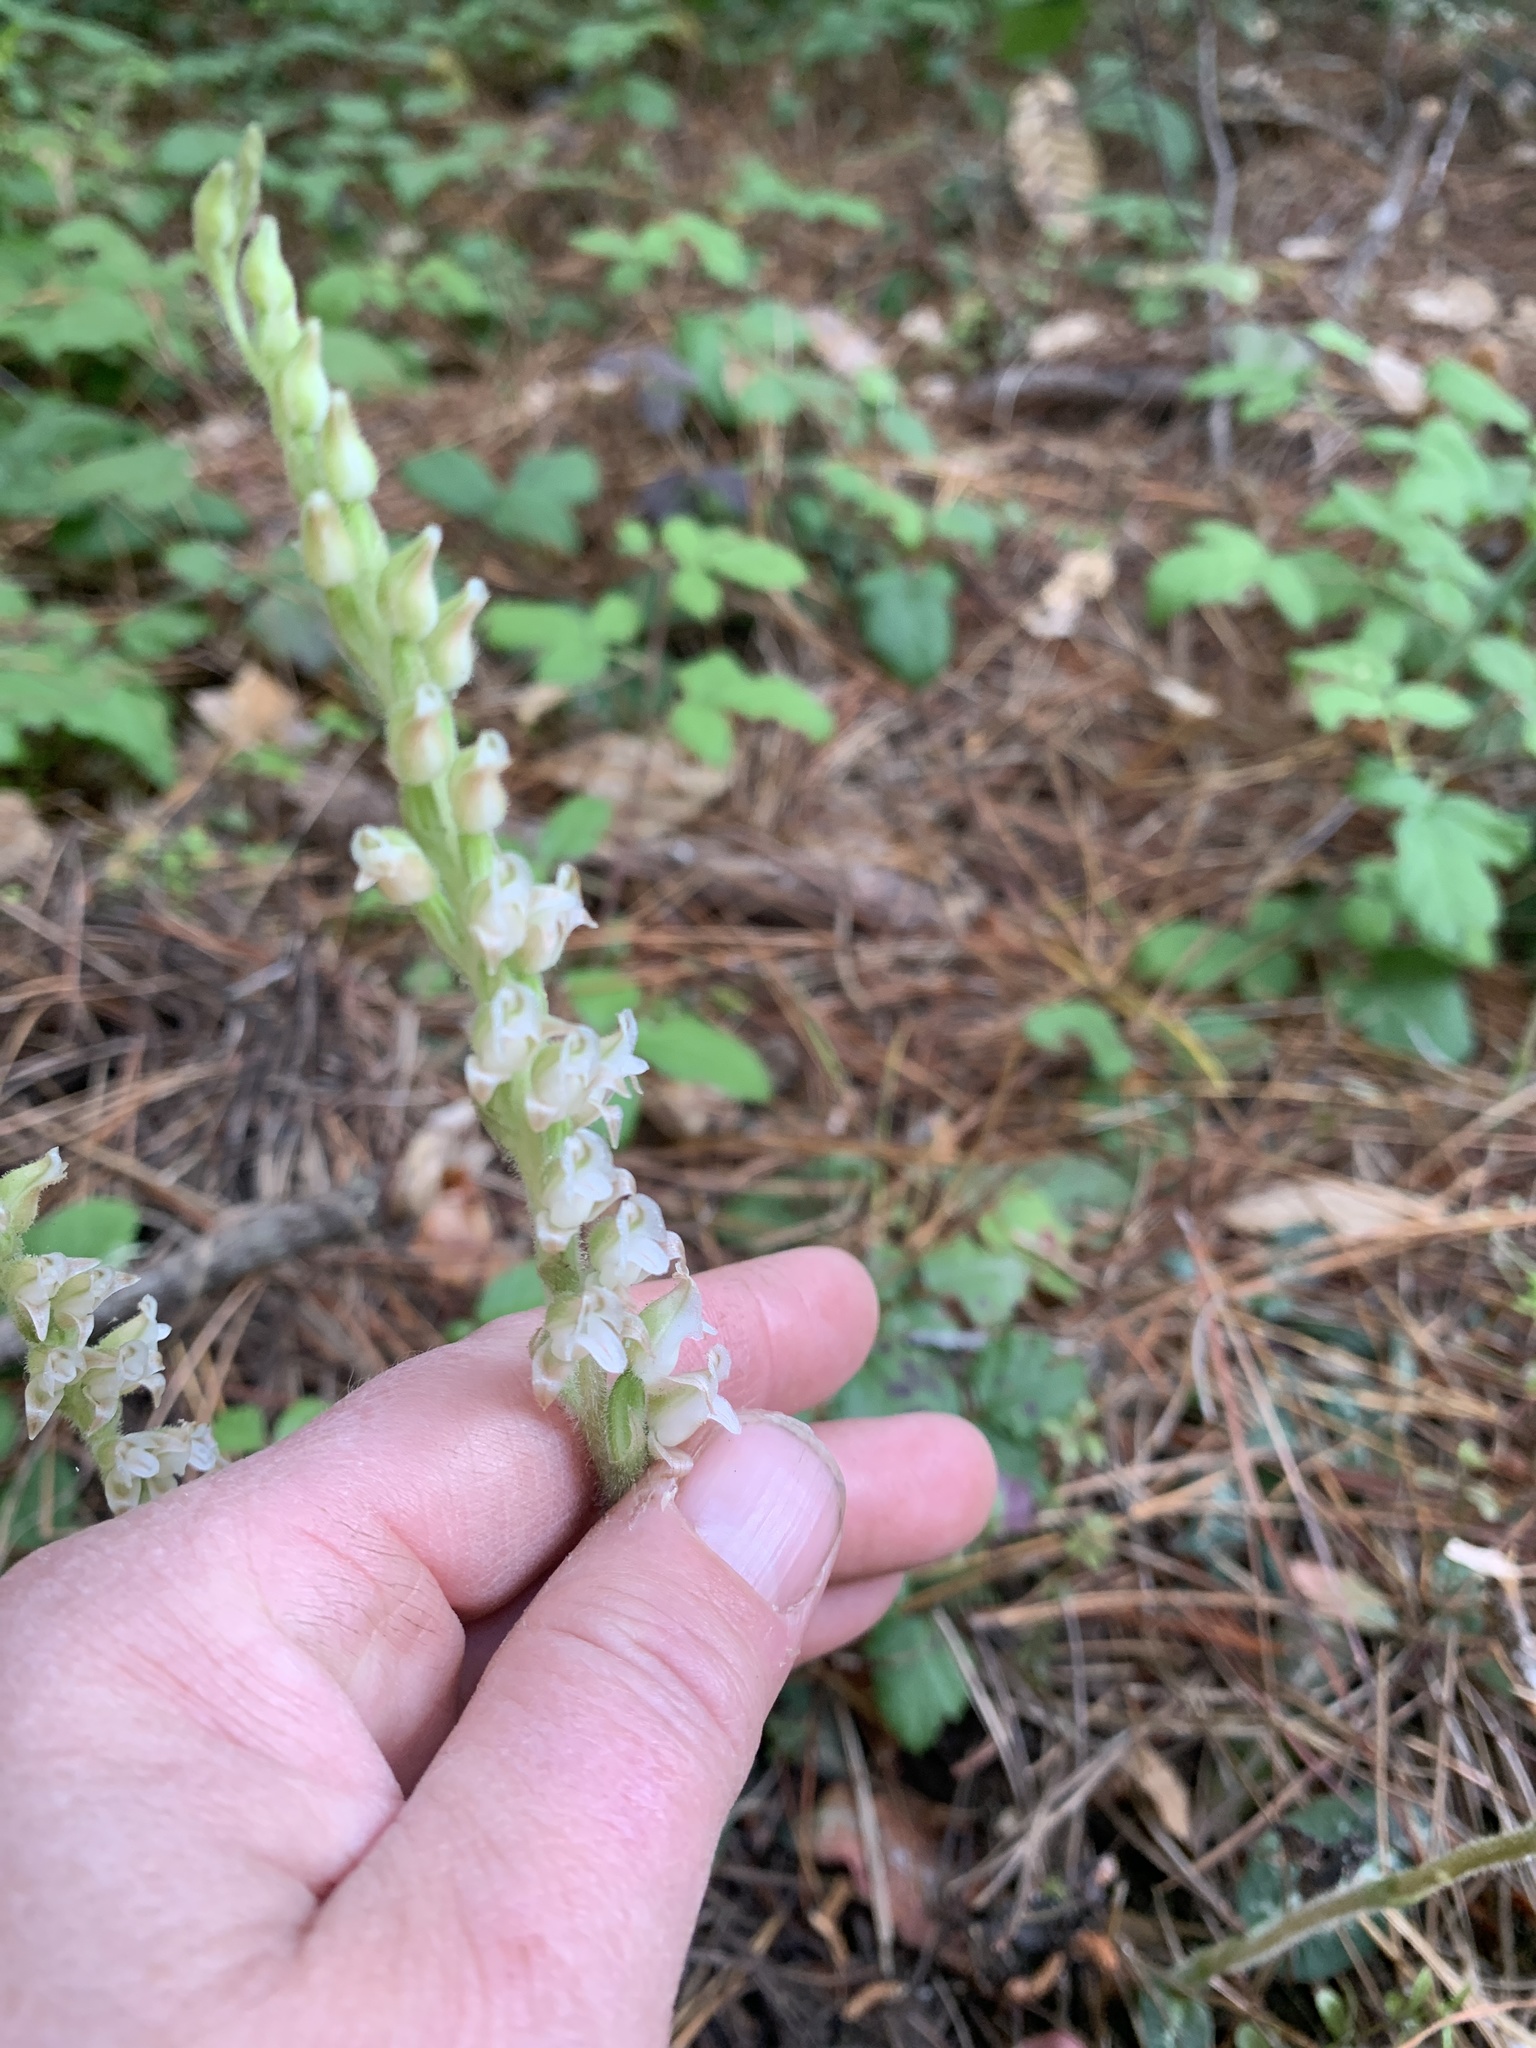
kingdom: Plantae
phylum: Tracheophyta
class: Liliopsida
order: Asparagales
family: Orchidaceae
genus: Goodyera
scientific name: Goodyera oblongifolia
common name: Giant rattlesnake-plantain
